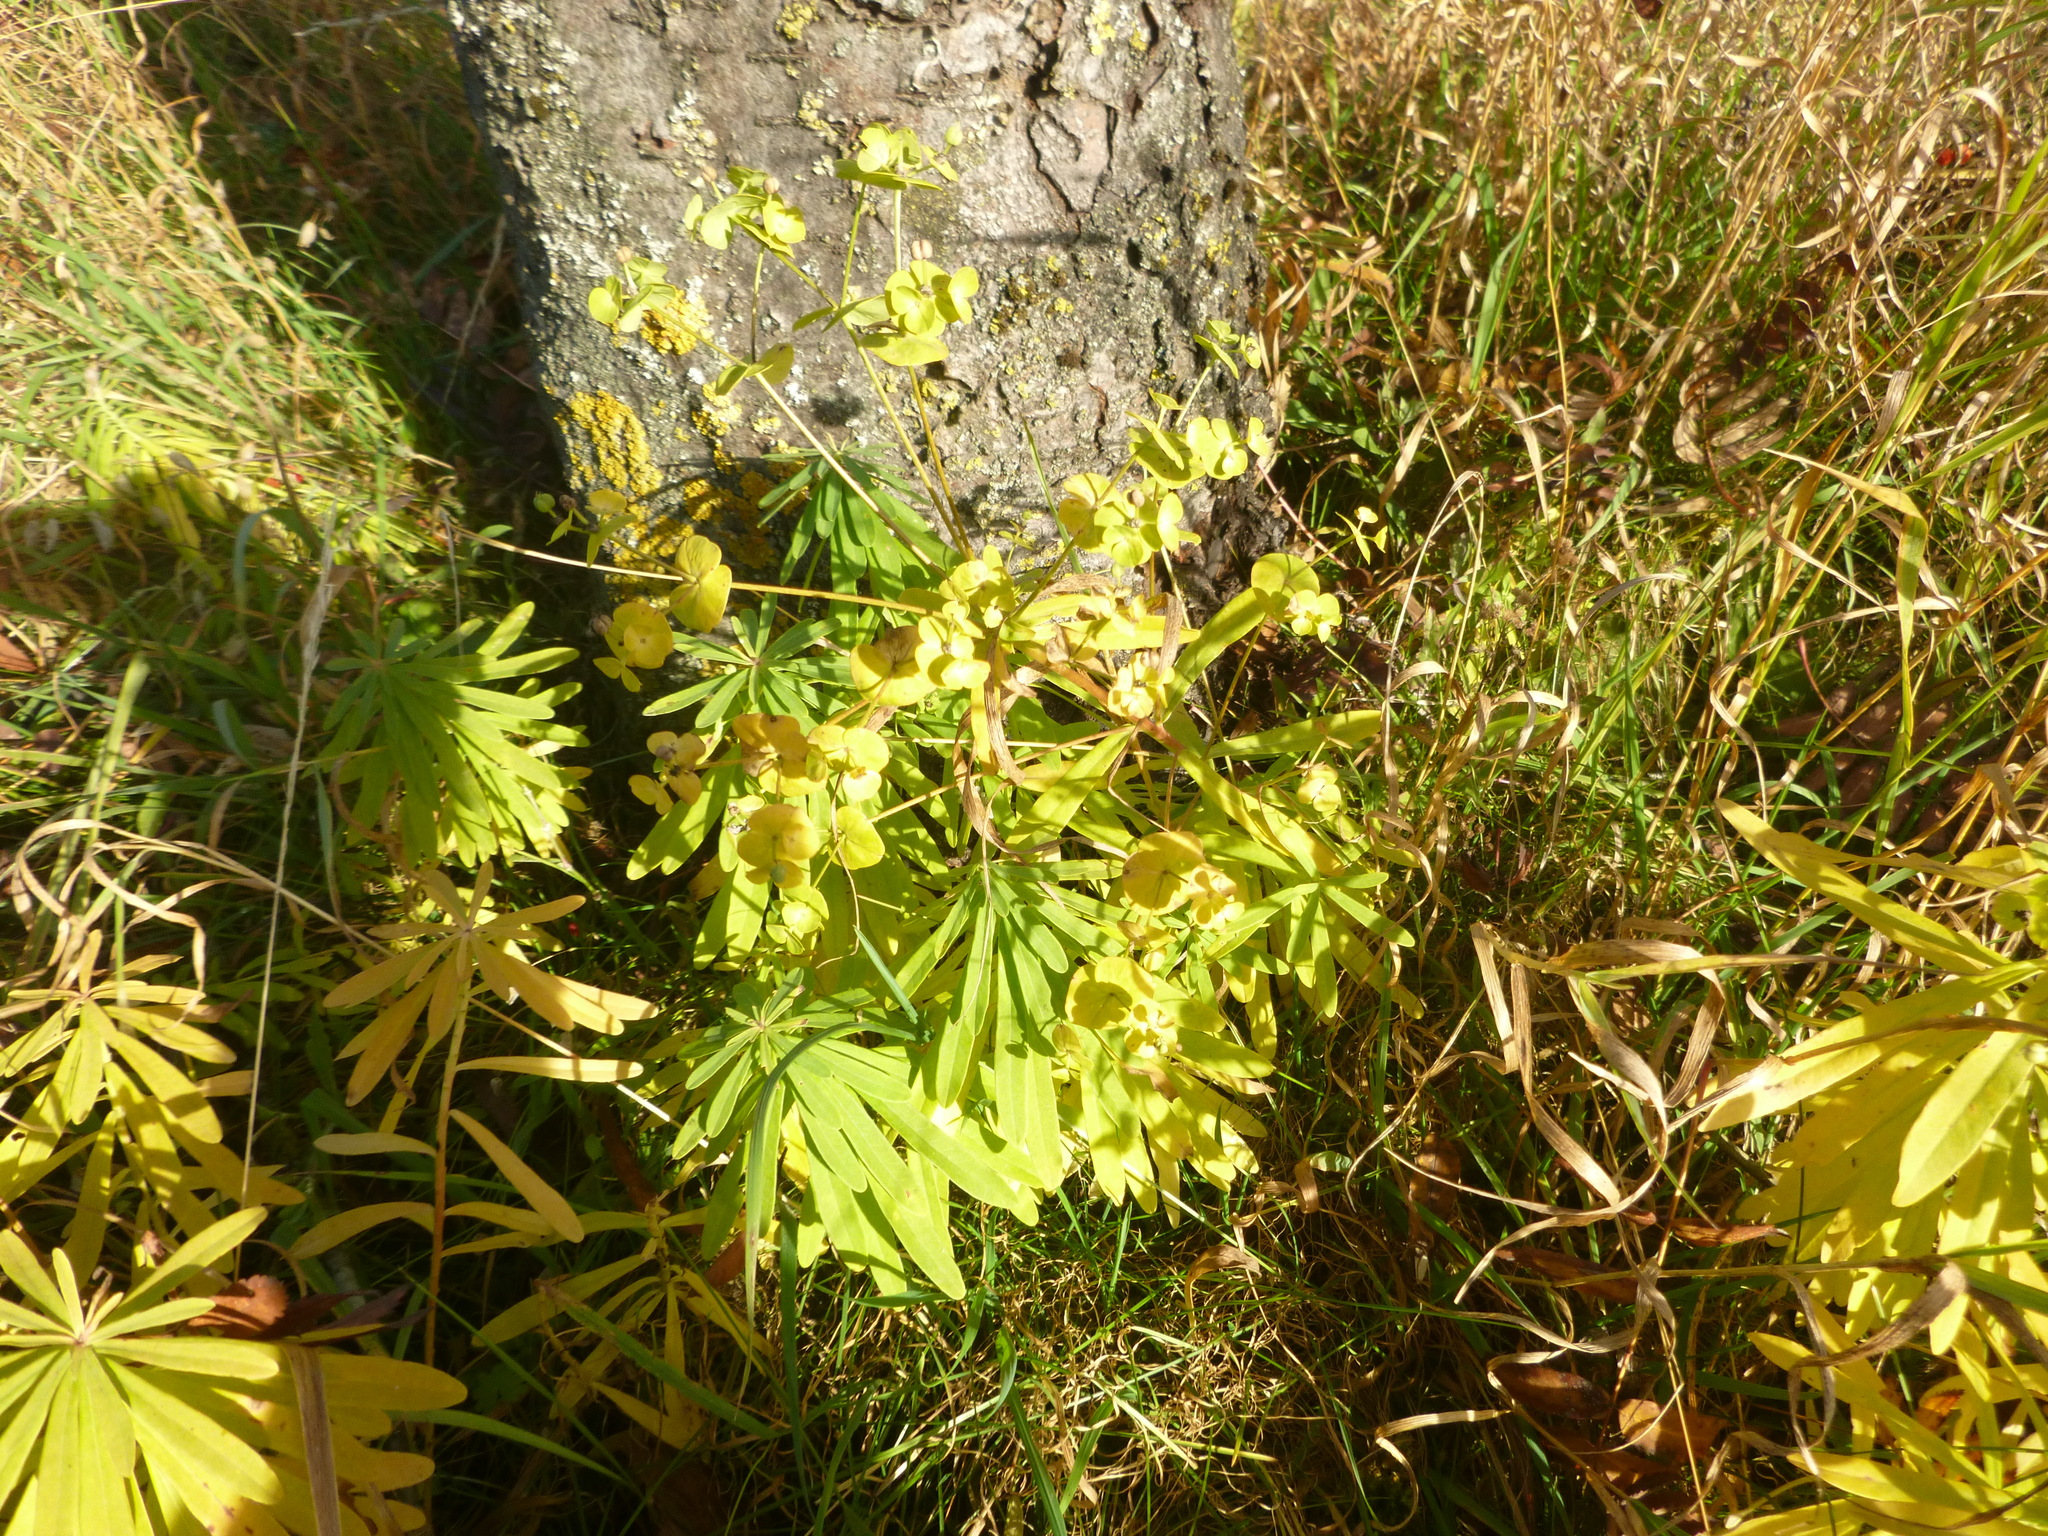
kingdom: Plantae
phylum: Tracheophyta
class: Magnoliopsida
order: Malpighiales
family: Euphorbiaceae
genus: Euphorbia
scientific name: Euphorbia esula
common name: Leafy spurge
